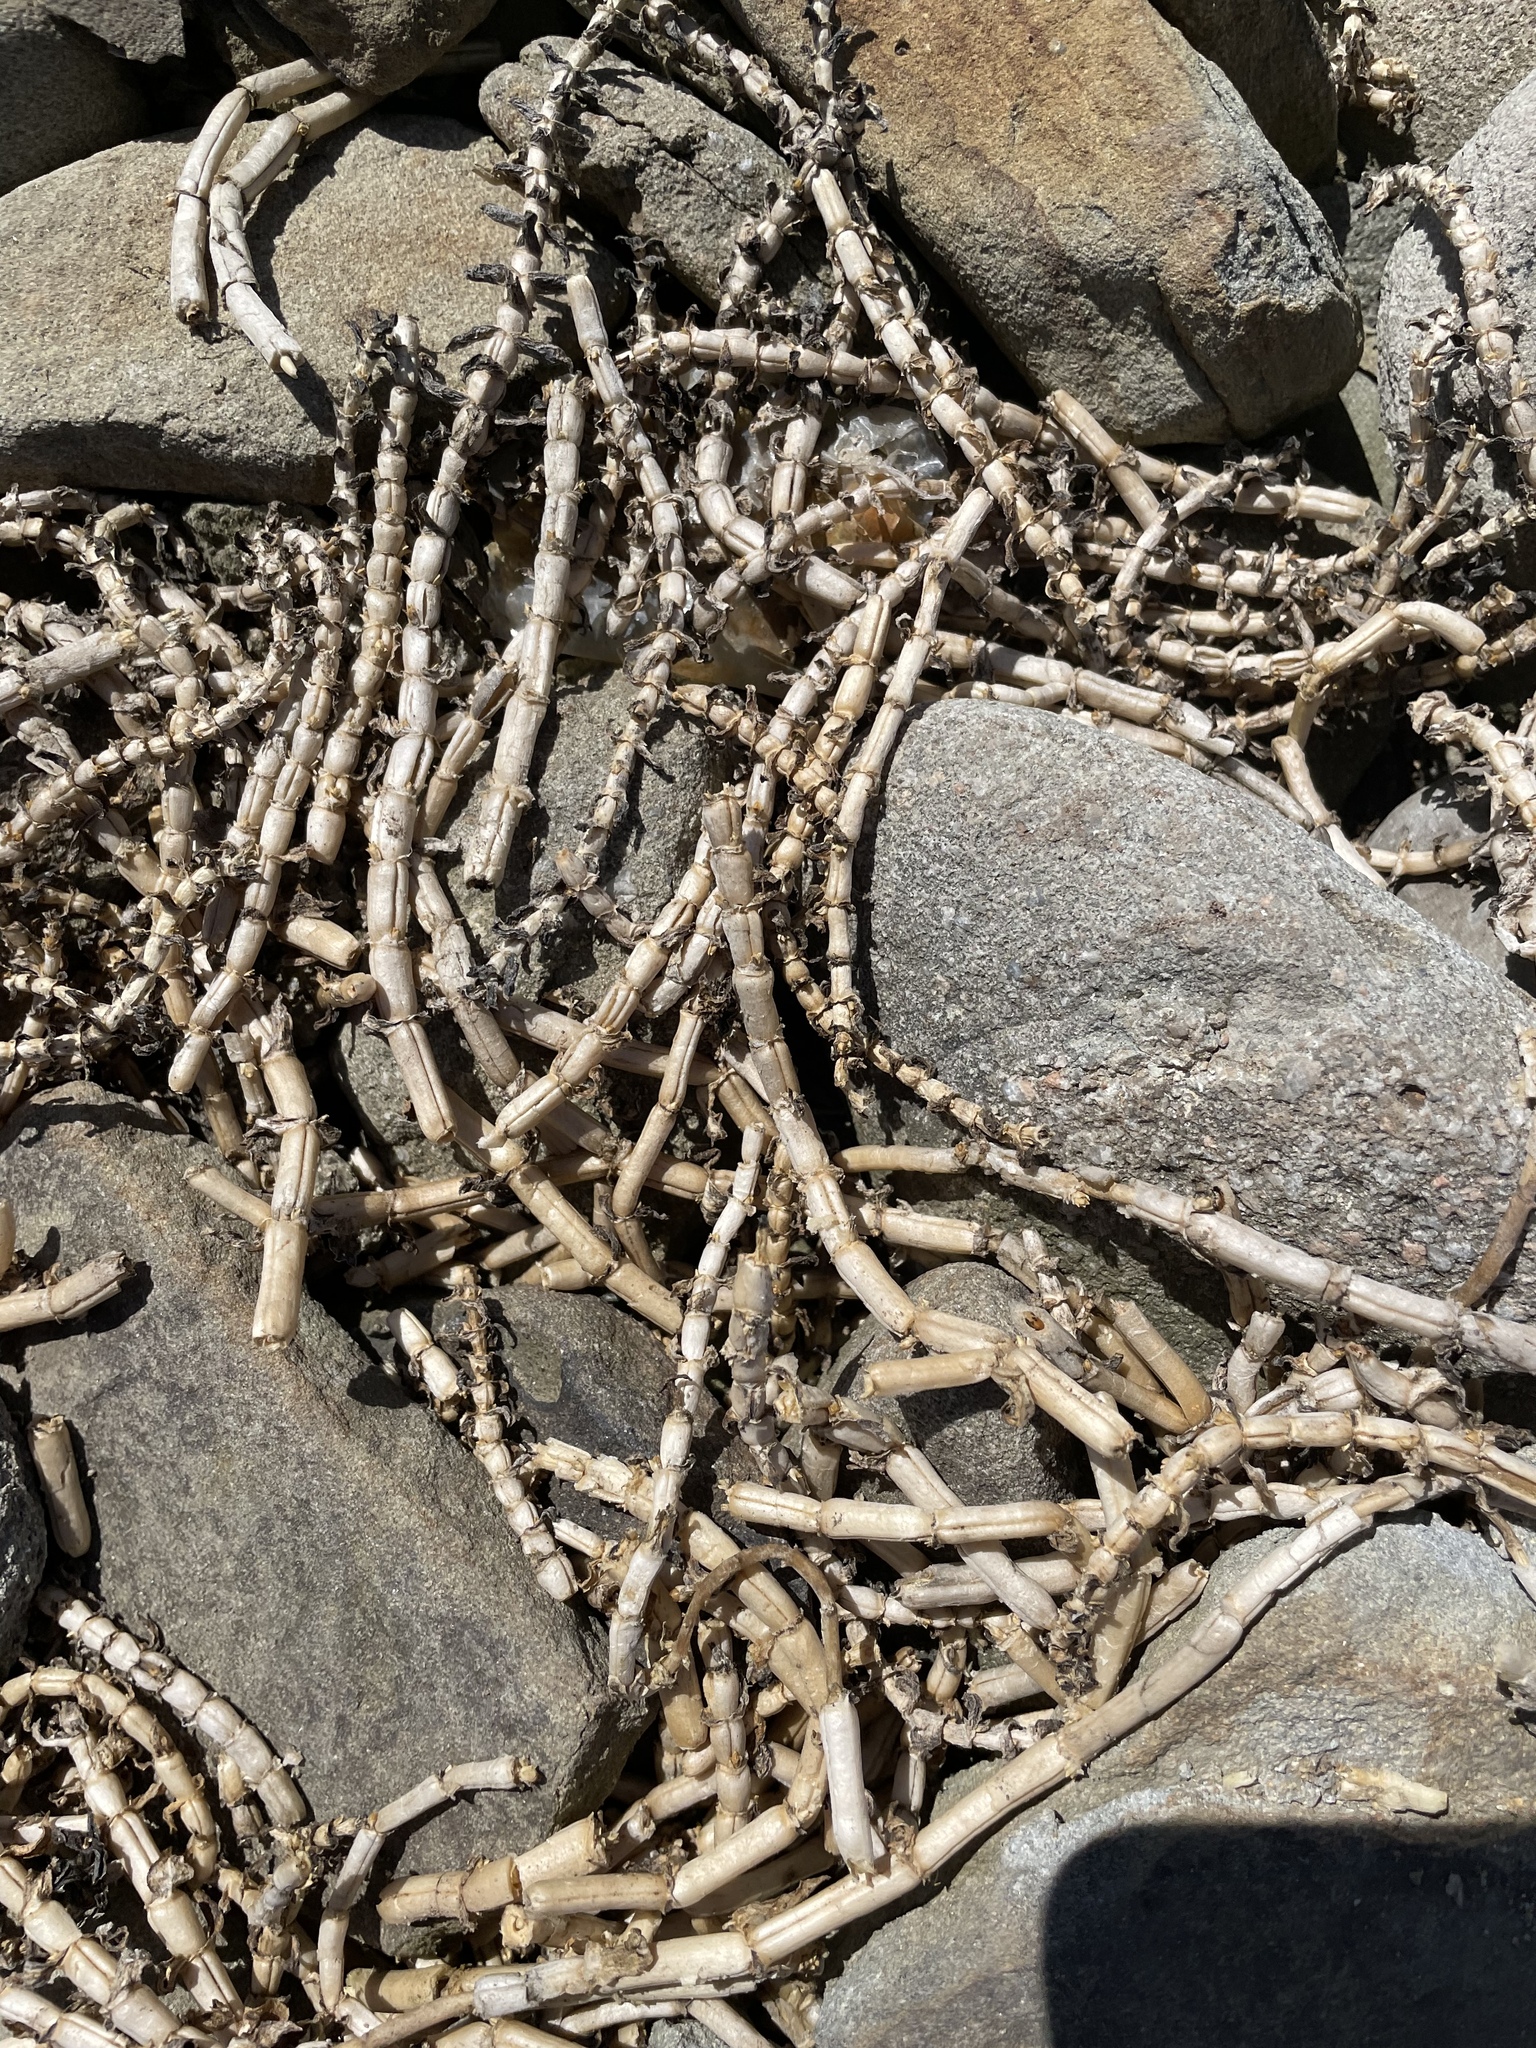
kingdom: Plantae
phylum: Tracheophyta
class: Magnoliopsida
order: Caryophyllales
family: Caryophyllaceae
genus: Honckenya
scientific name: Honckenya peploides
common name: Sea sandwort
